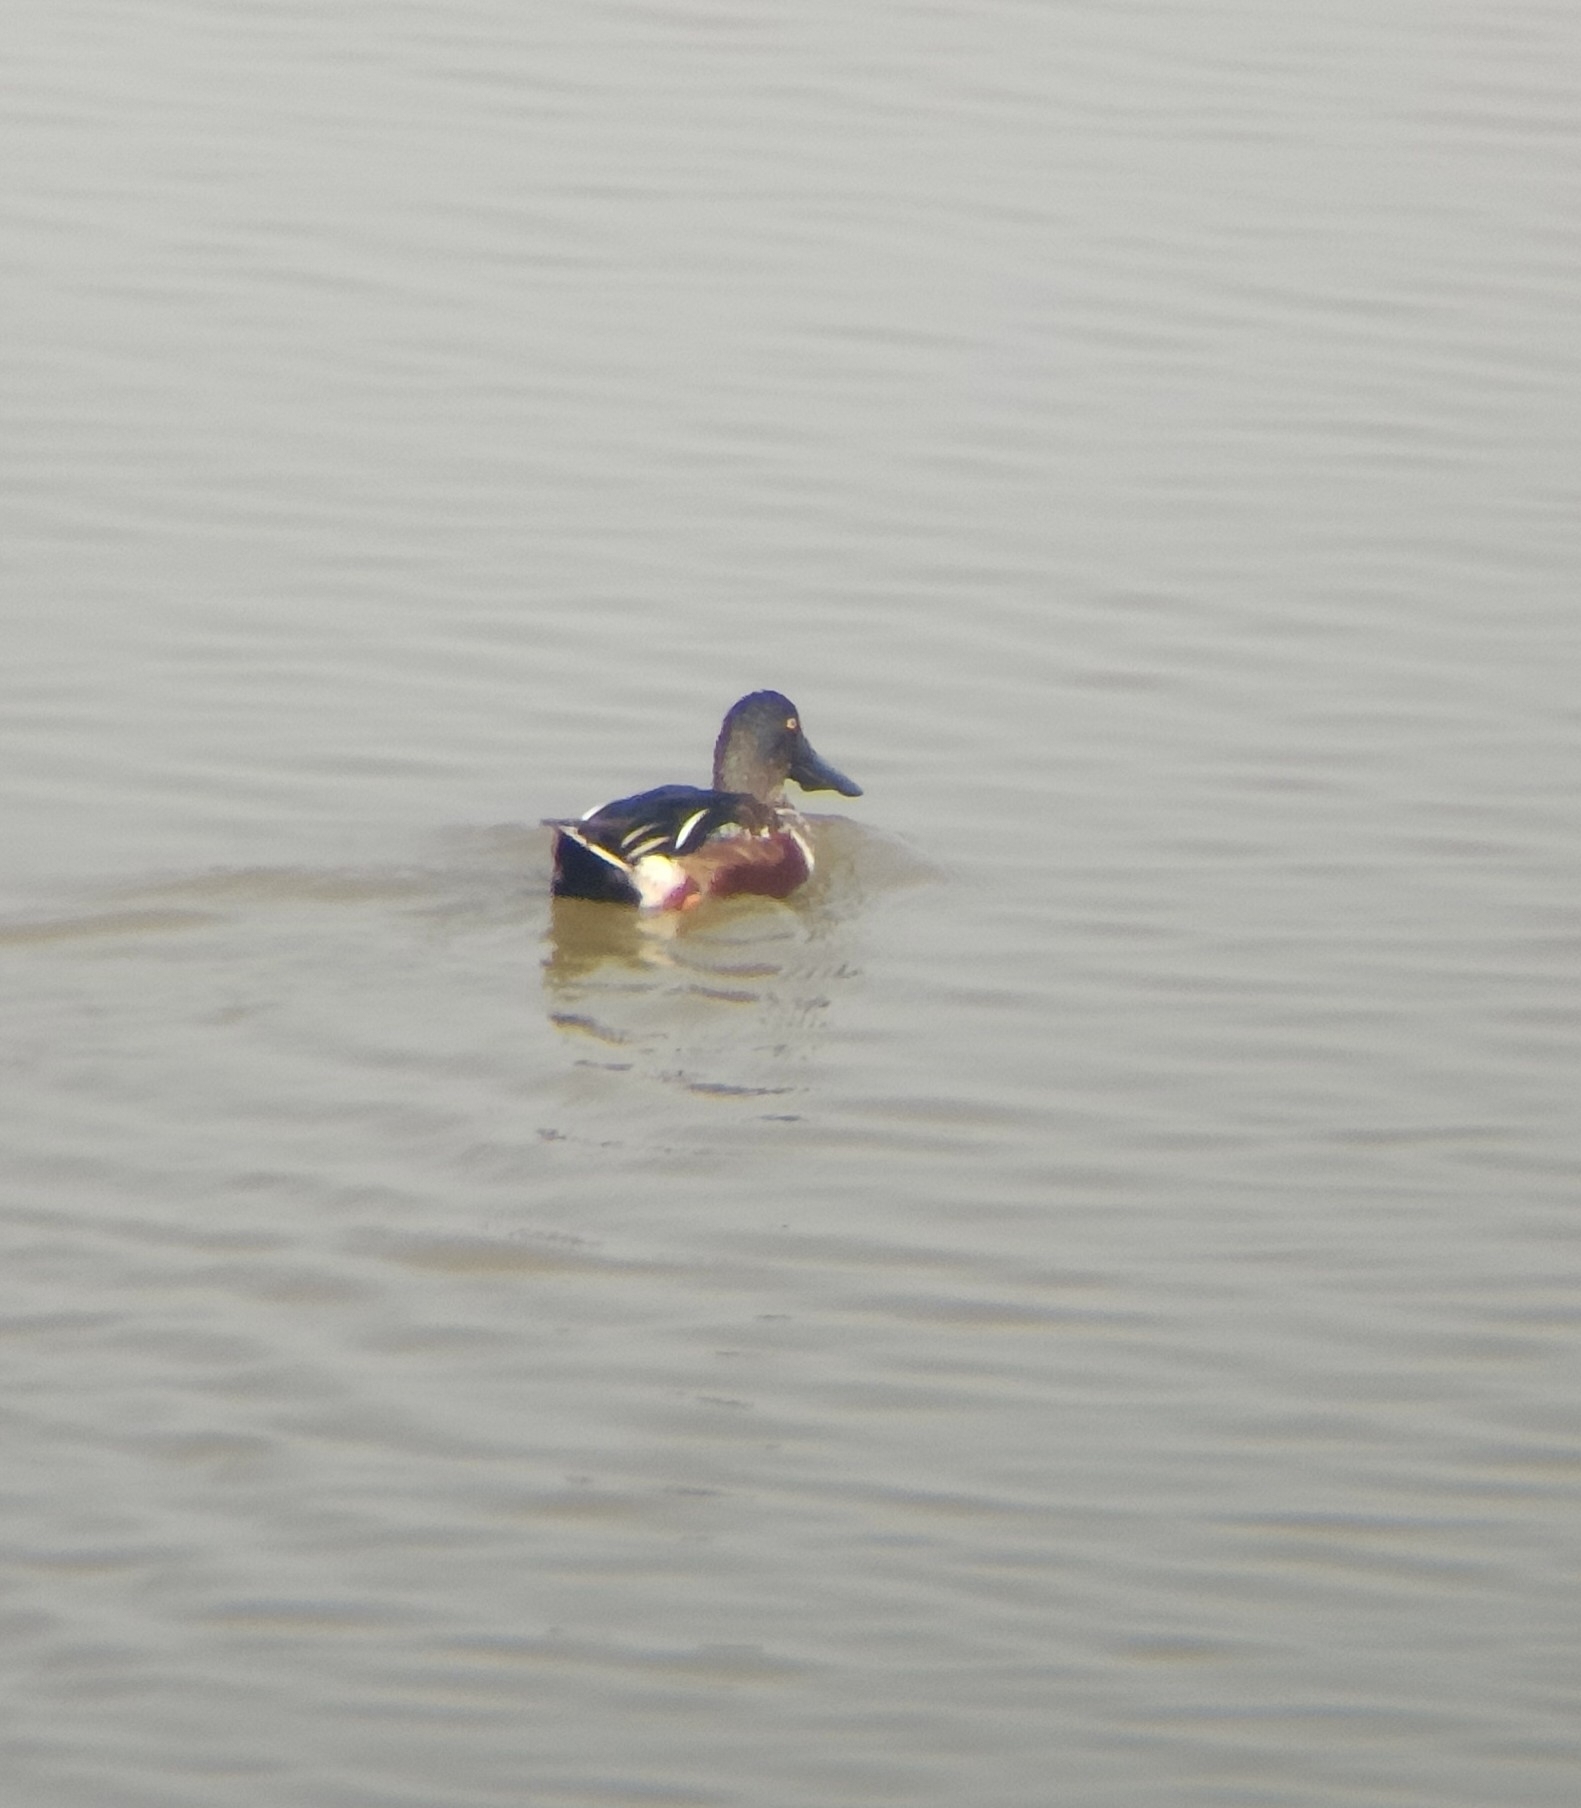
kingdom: Animalia
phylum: Chordata
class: Aves
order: Anseriformes
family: Anatidae
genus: Spatula
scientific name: Spatula clypeata
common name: Northern shoveler
